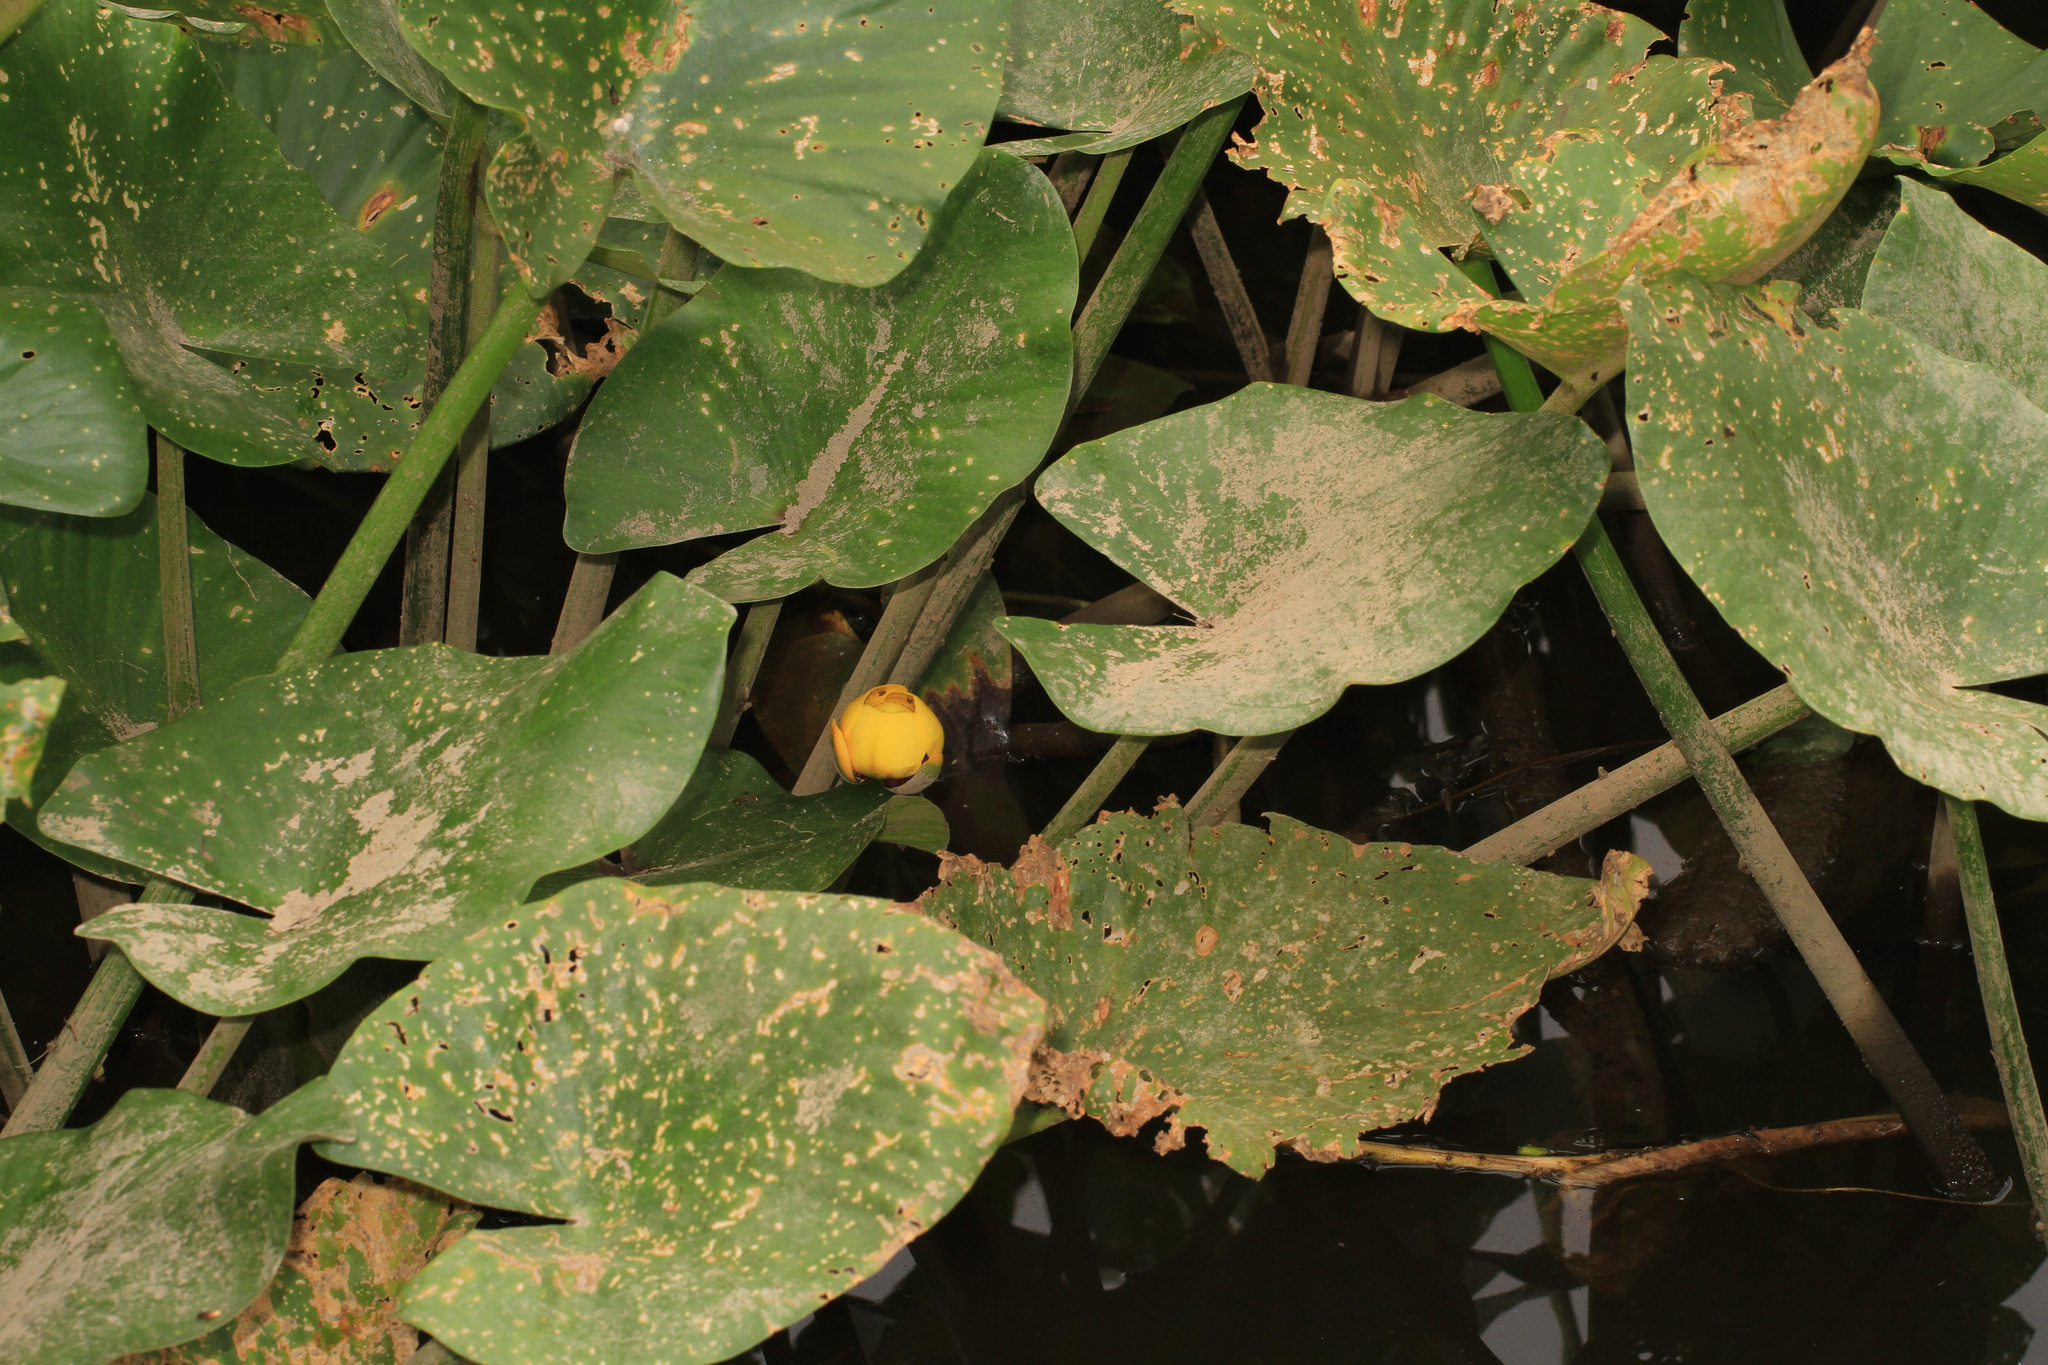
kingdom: Plantae
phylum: Tracheophyta
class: Magnoliopsida
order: Nymphaeales
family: Nymphaeaceae
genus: Nuphar
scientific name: Nuphar advena
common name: Spatter-dock
